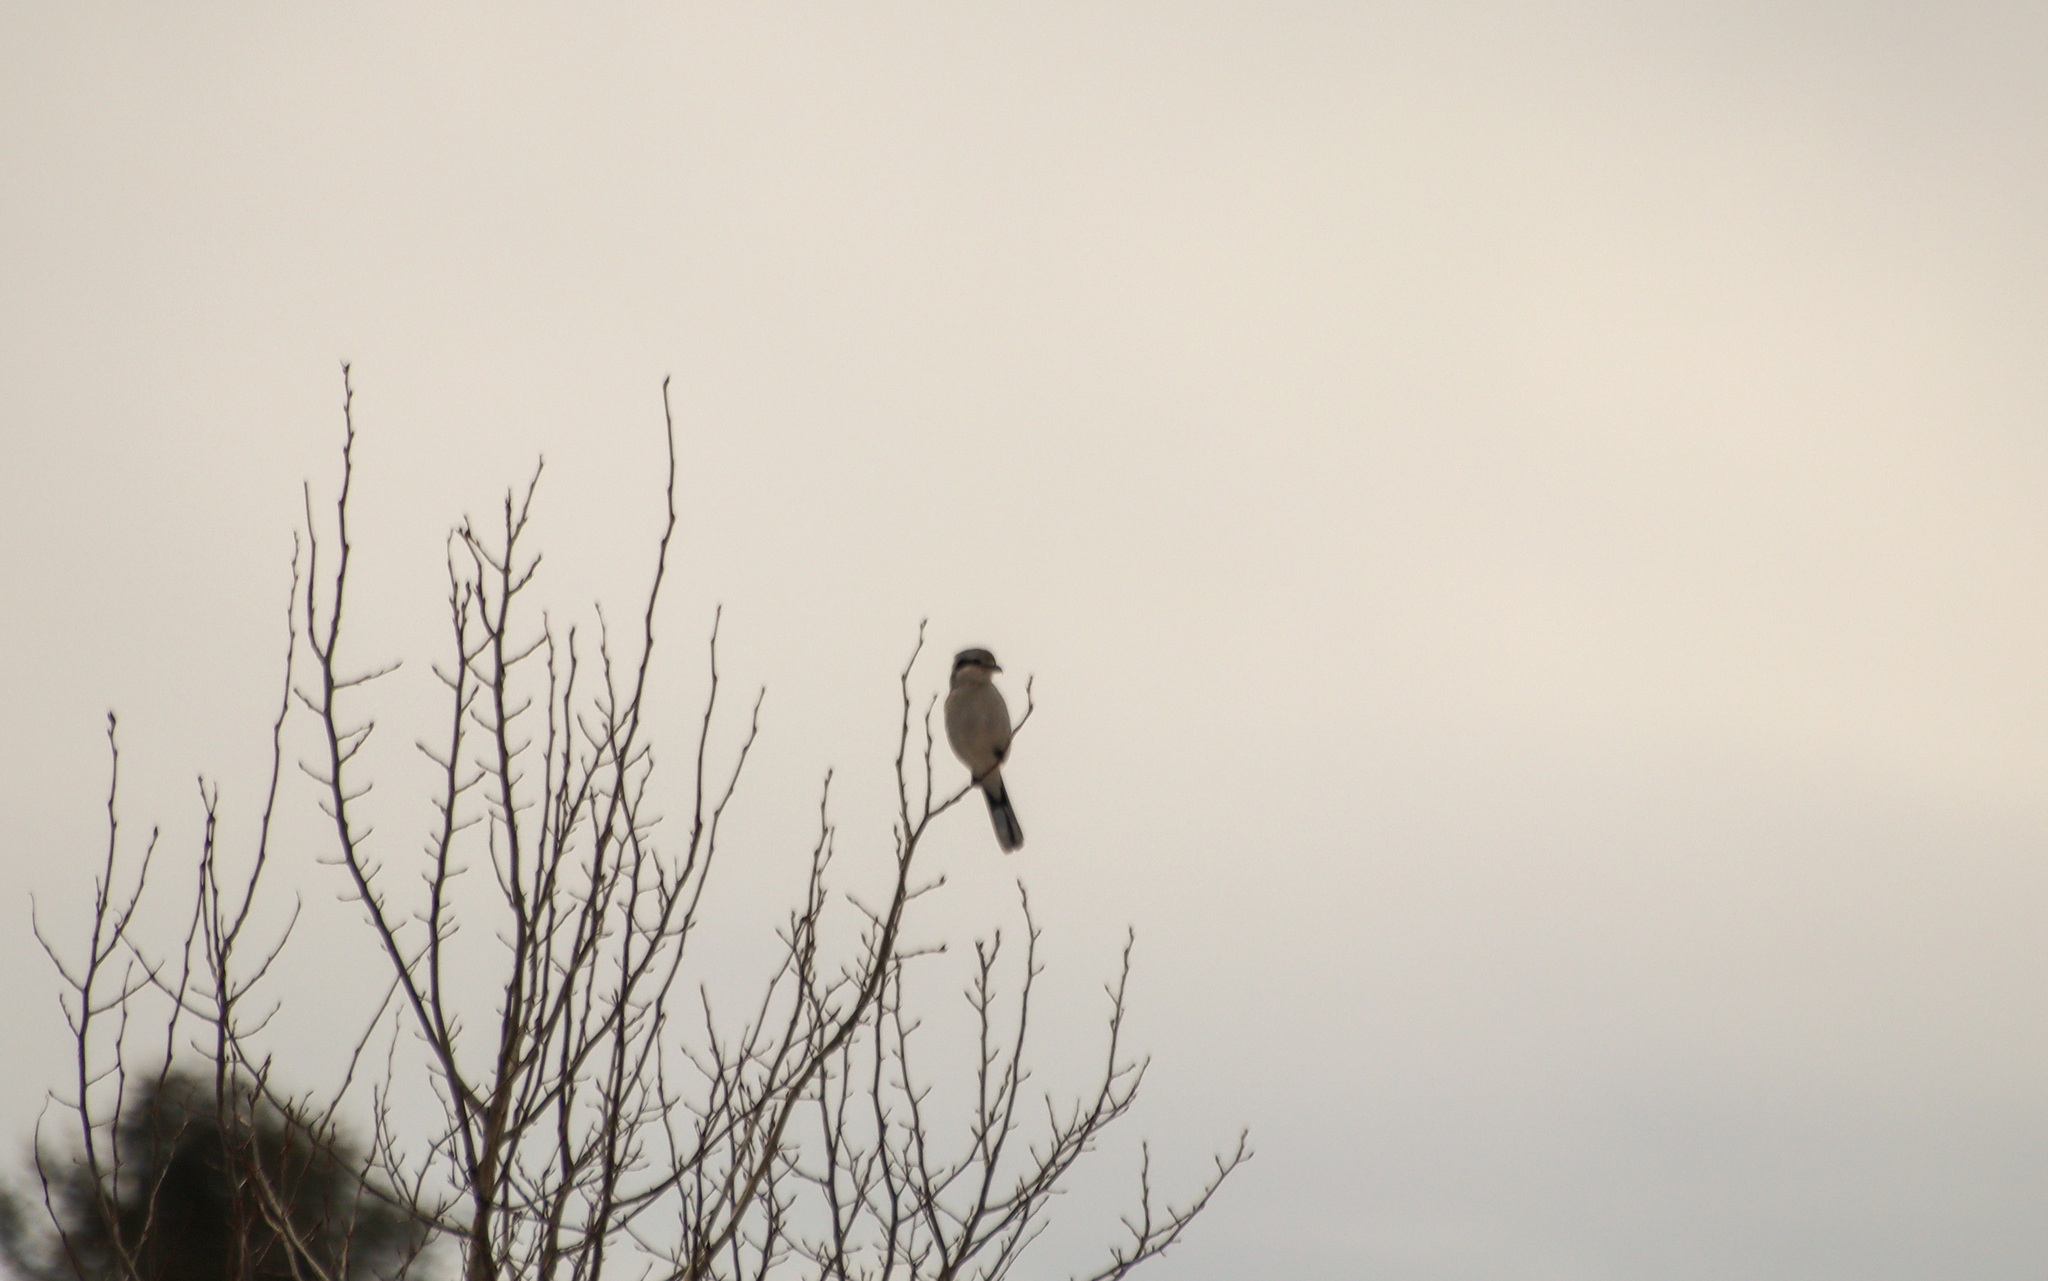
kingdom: Animalia
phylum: Chordata
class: Aves
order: Passeriformes
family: Laniidae
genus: Lanius
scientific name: Lanius borealis
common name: Northern shrike
